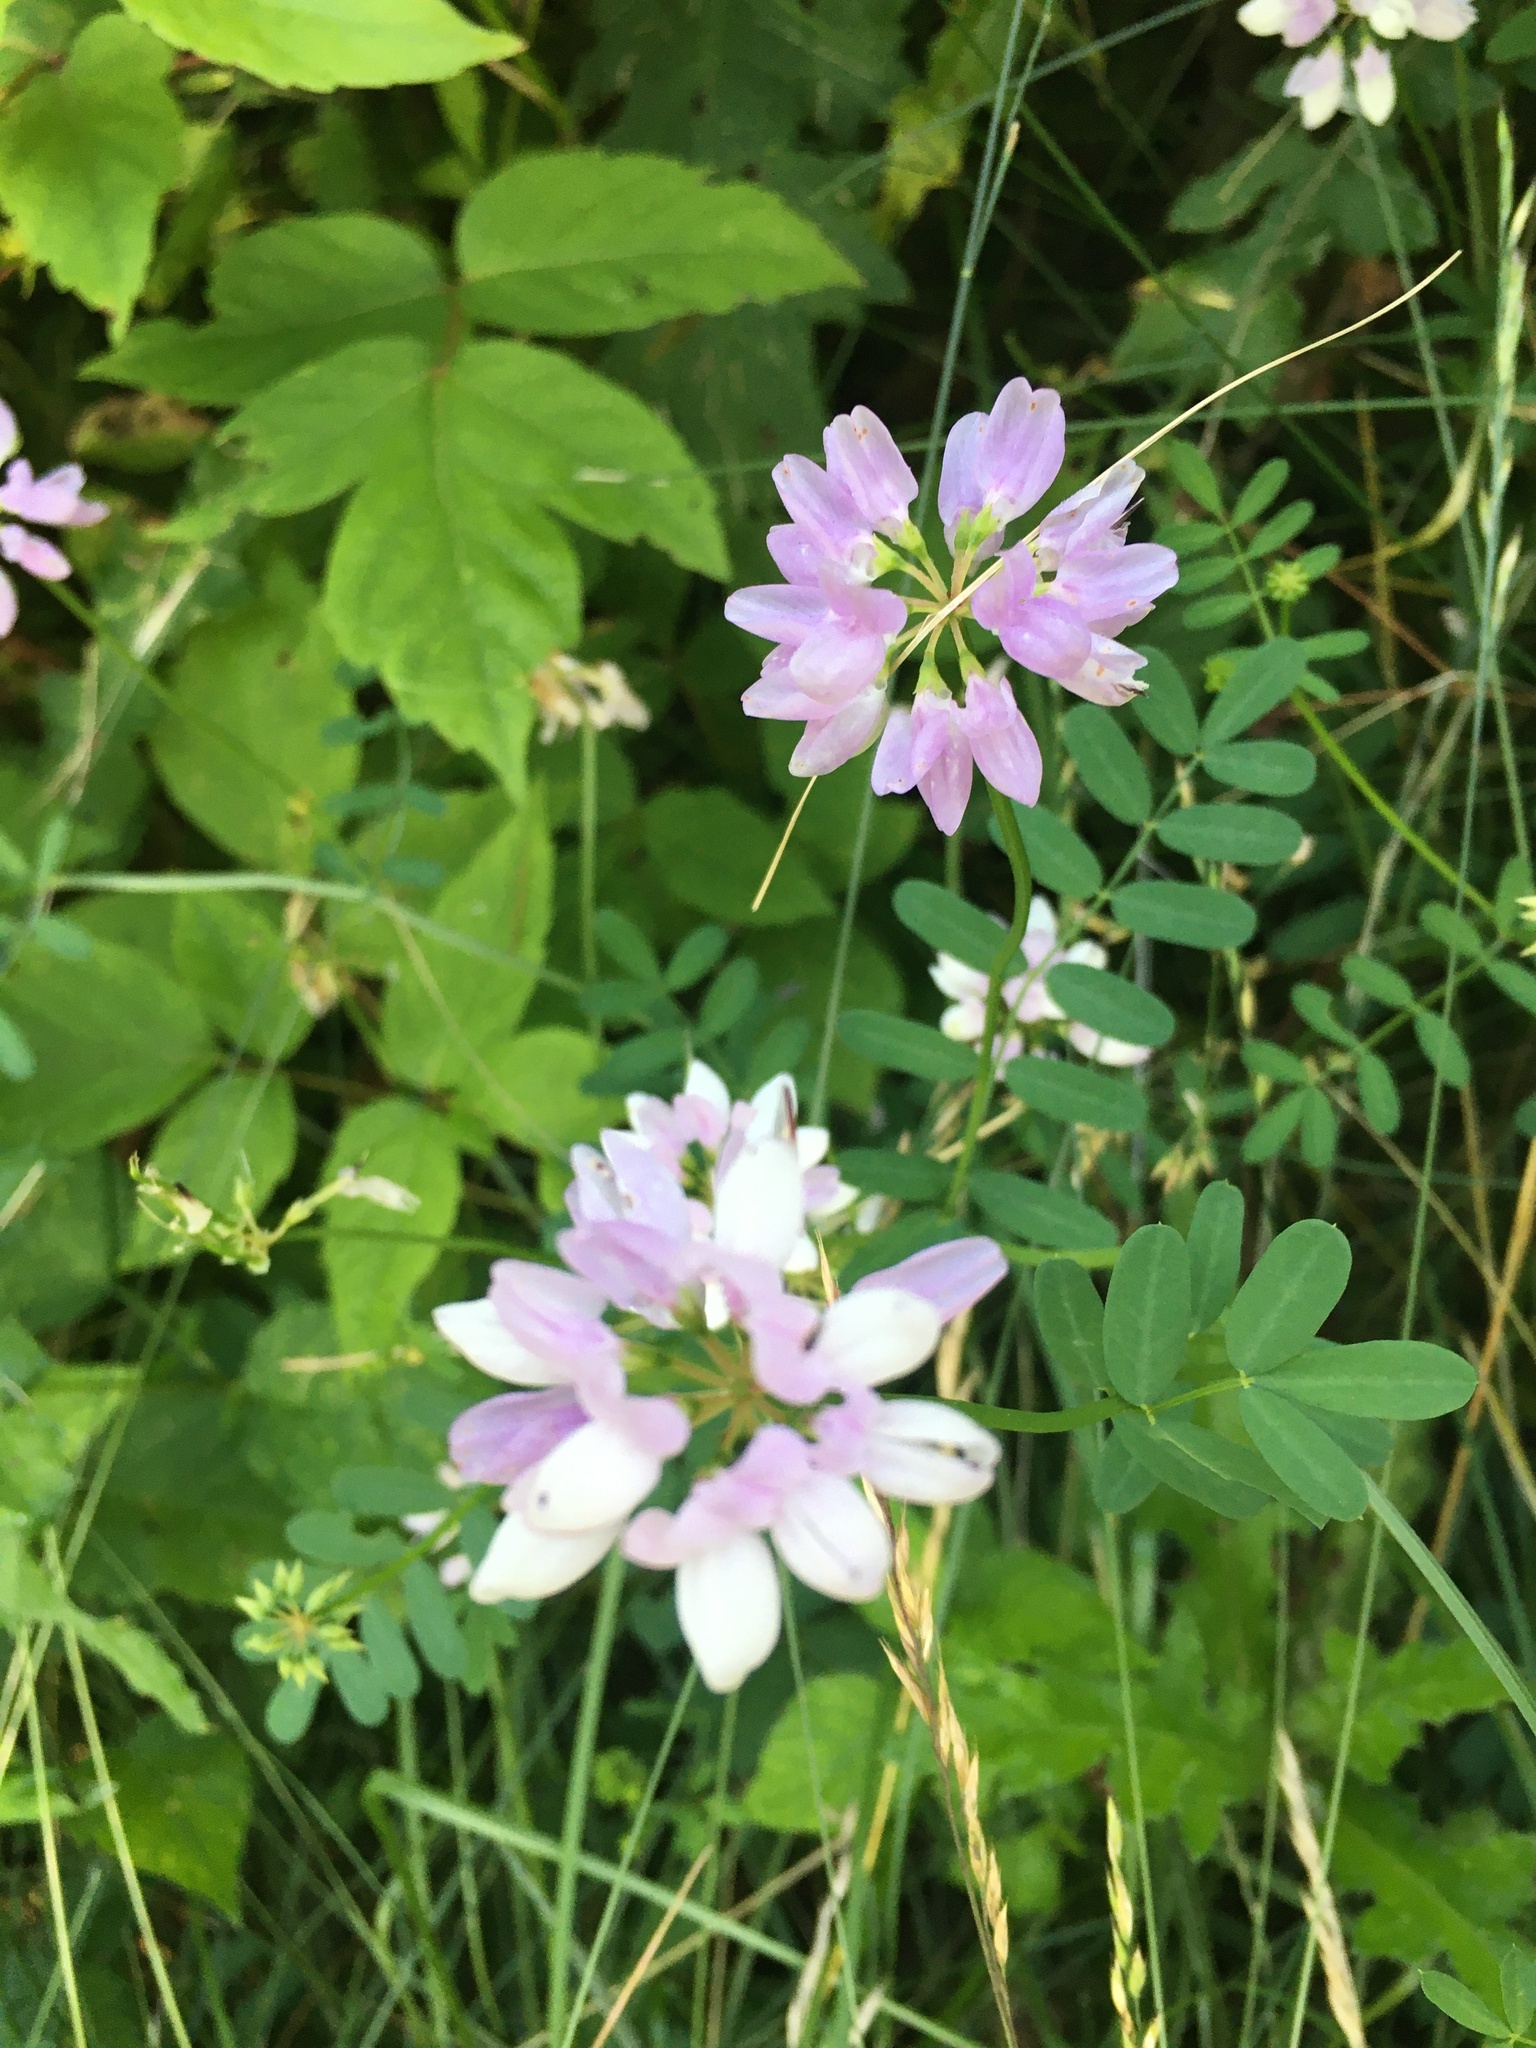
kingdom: Plantae
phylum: Tracheophyta
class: Magnoliopsida
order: Fabales
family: Fabaceae
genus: Coronilla
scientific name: Coronilla varia
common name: Crownvetch
